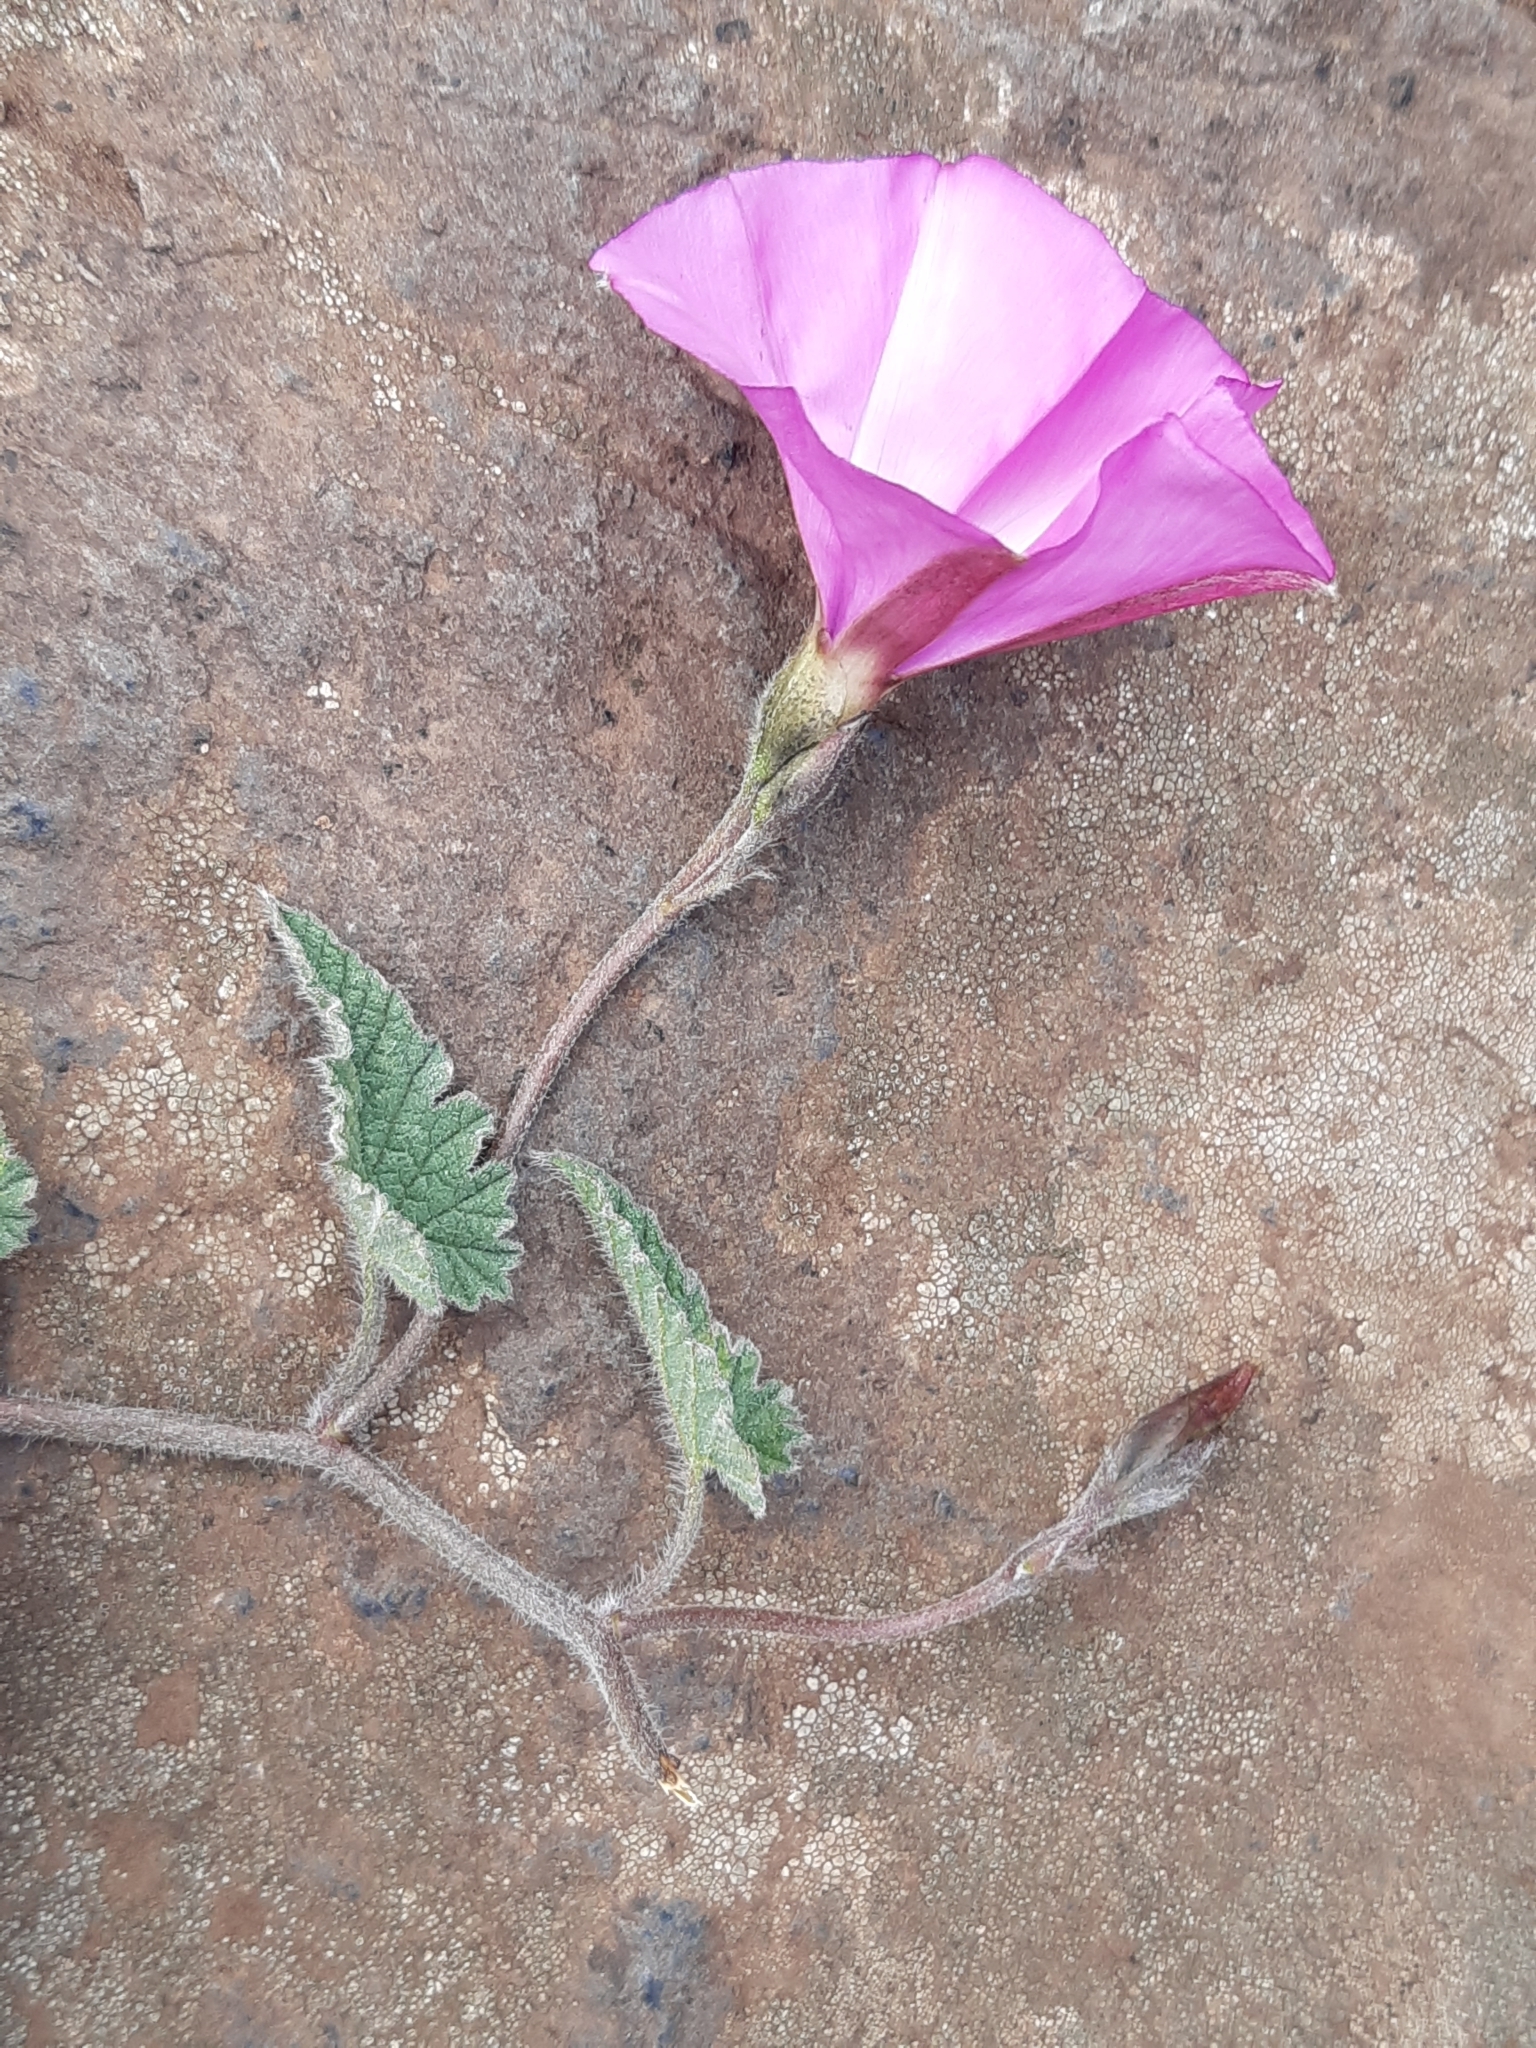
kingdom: Plantae
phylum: Tracheophyta
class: Magnoliopsida
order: Solanales
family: Convolvulaceae
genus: Convolvulus
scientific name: Convolvulus althaeoides
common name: Mallow bindweed
